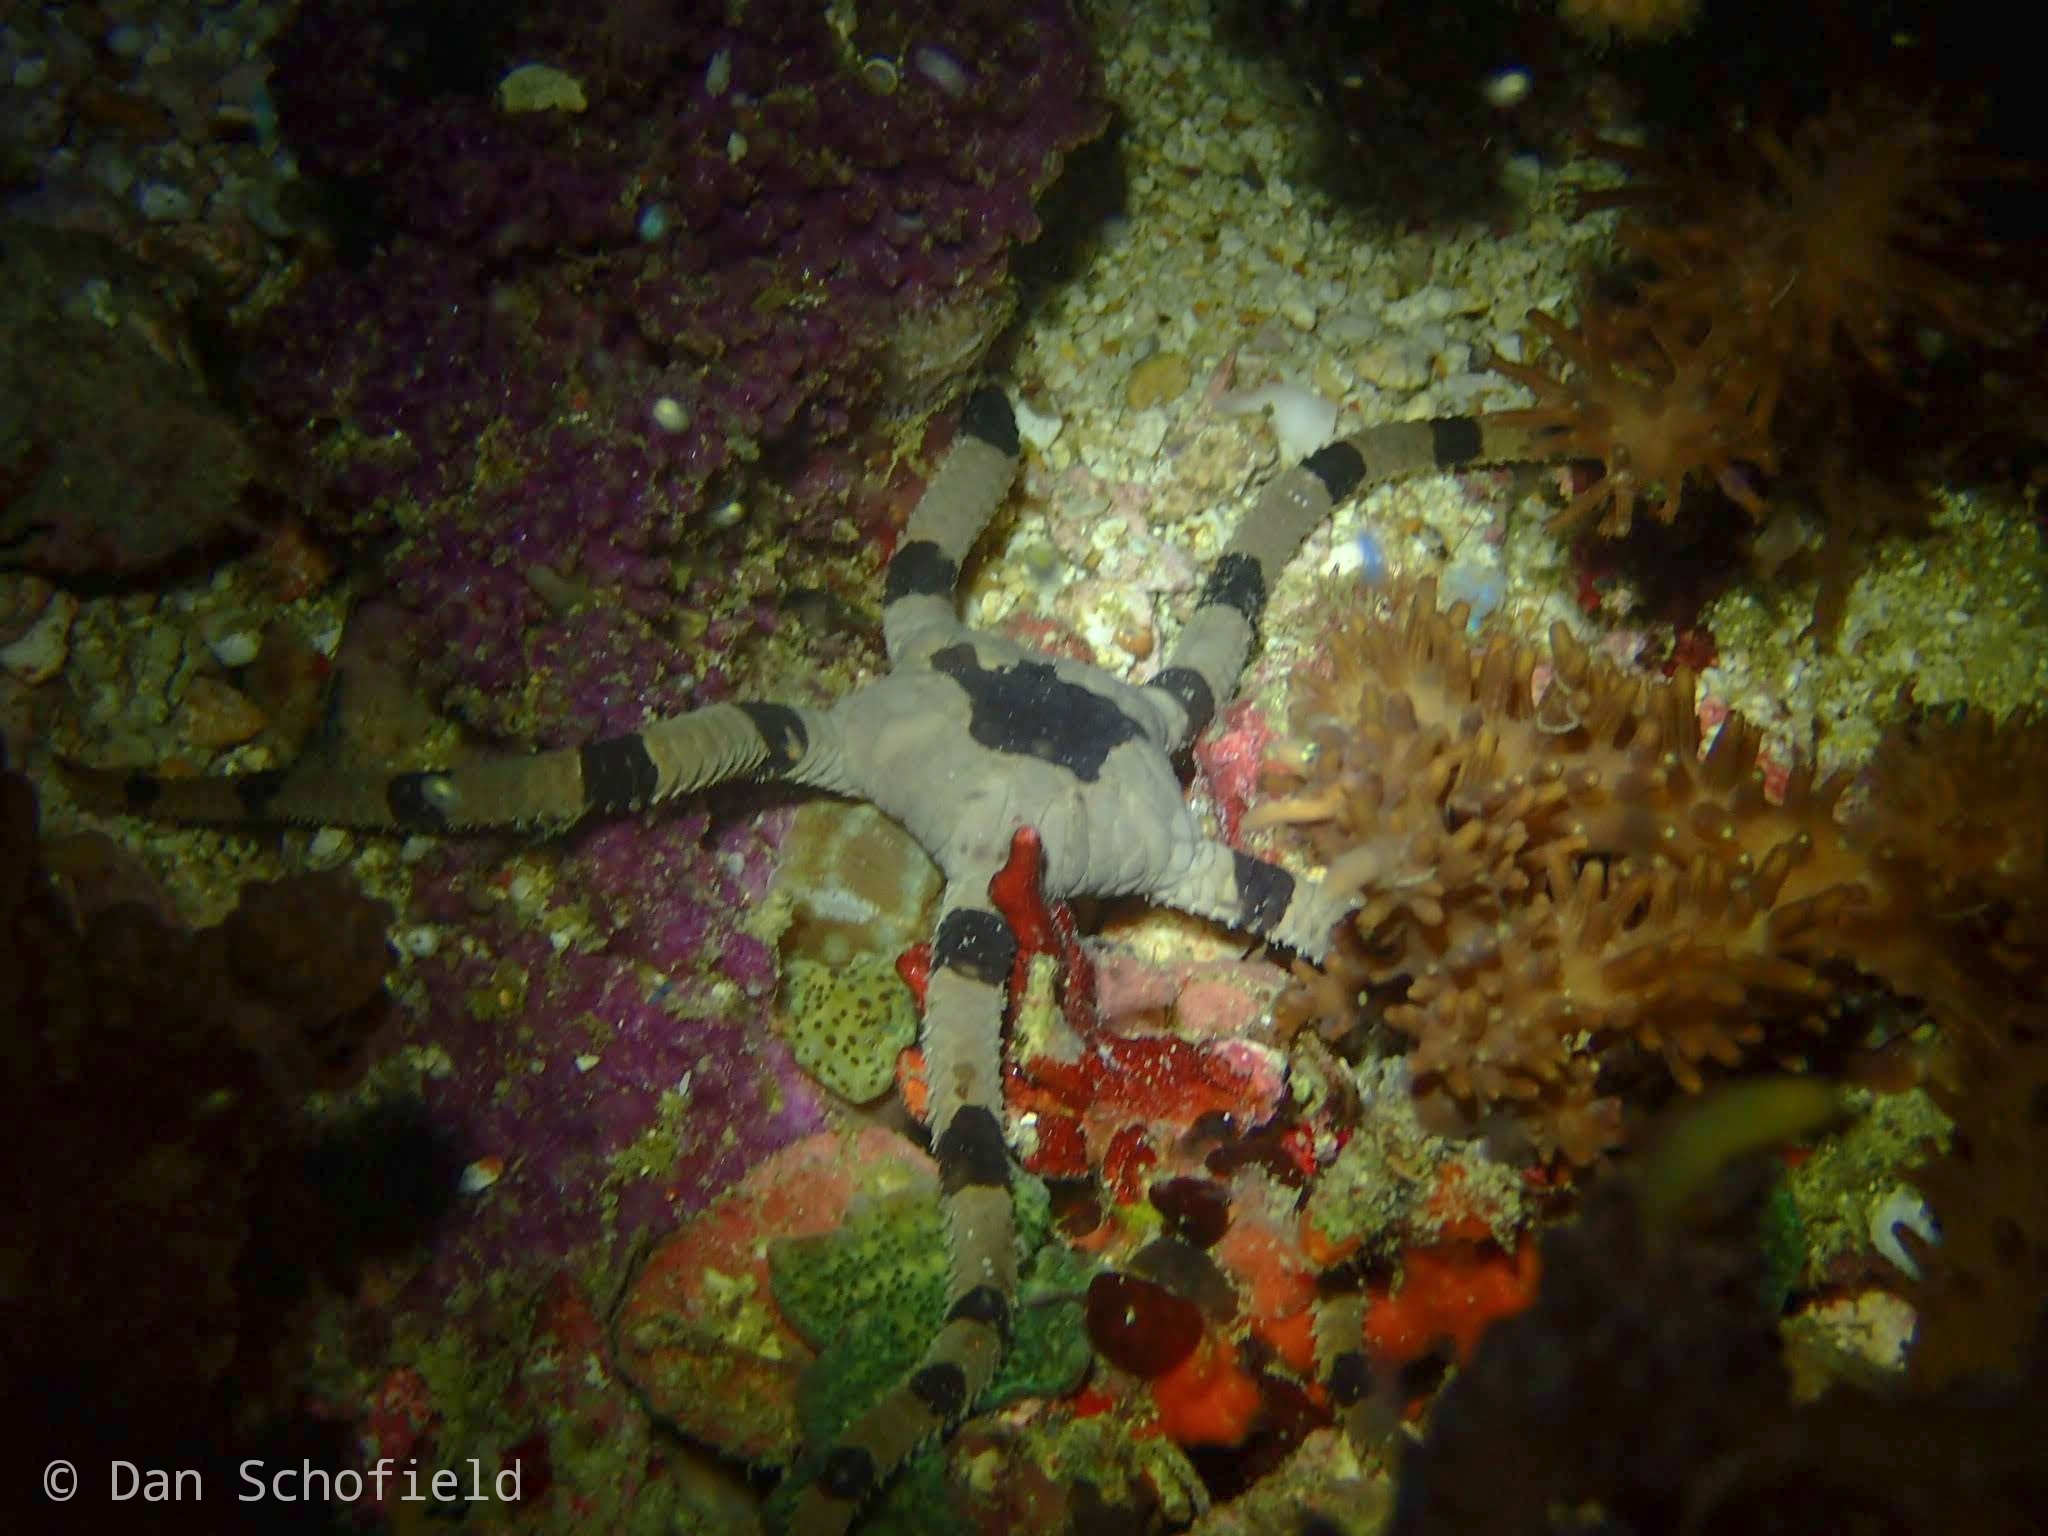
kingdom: Animalia
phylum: Echinodermata
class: Ophiuroidea
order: Amphilepidida
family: Ophiolepididae
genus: Ophiolepis
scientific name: Ophiolepis superba
